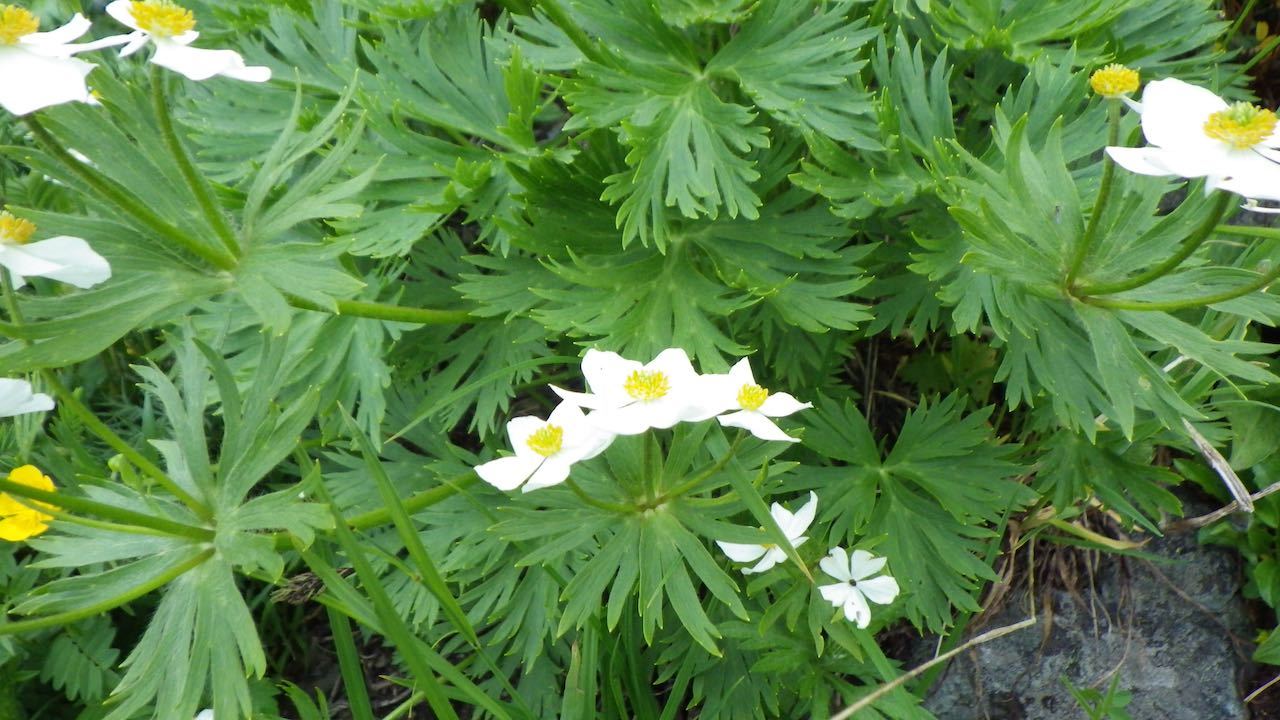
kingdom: Plantae
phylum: Tracheophyta
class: Magnoliopsida
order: Ranunculales
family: Ranunculaceae
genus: Anemonastrum
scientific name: Anemonastrum narcissiflorum
